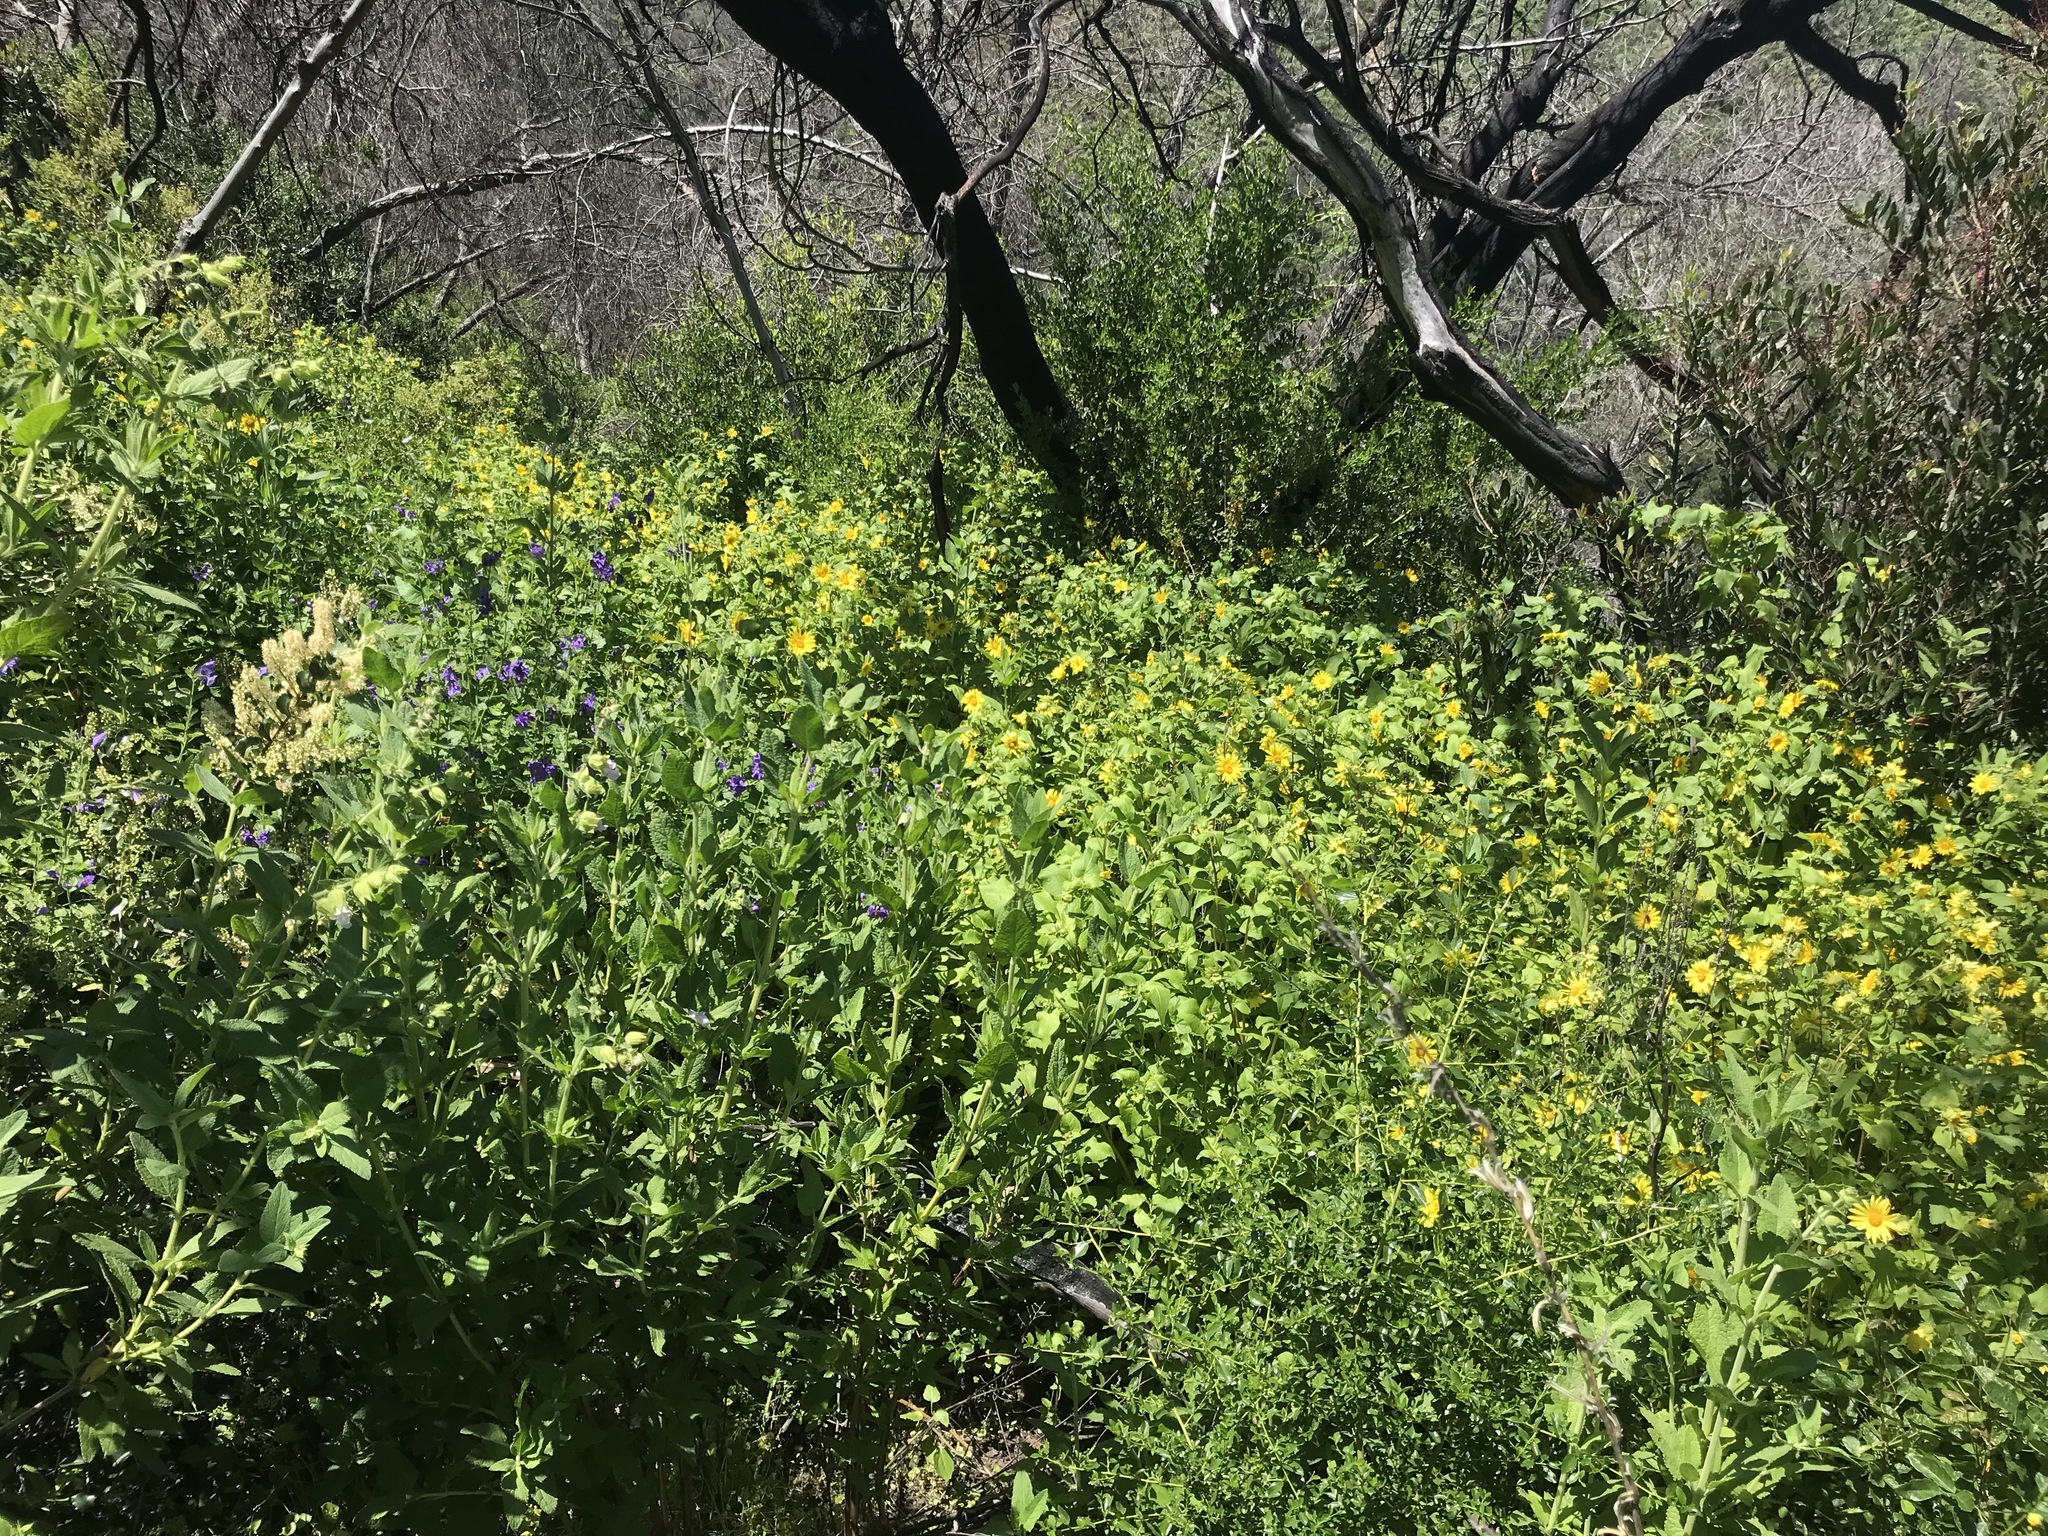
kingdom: Plantae
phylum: Tracheophyta
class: Magnoliopsida
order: Asterales
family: Asteraceae
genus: Venegasia
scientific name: Venegasia carpesioides
